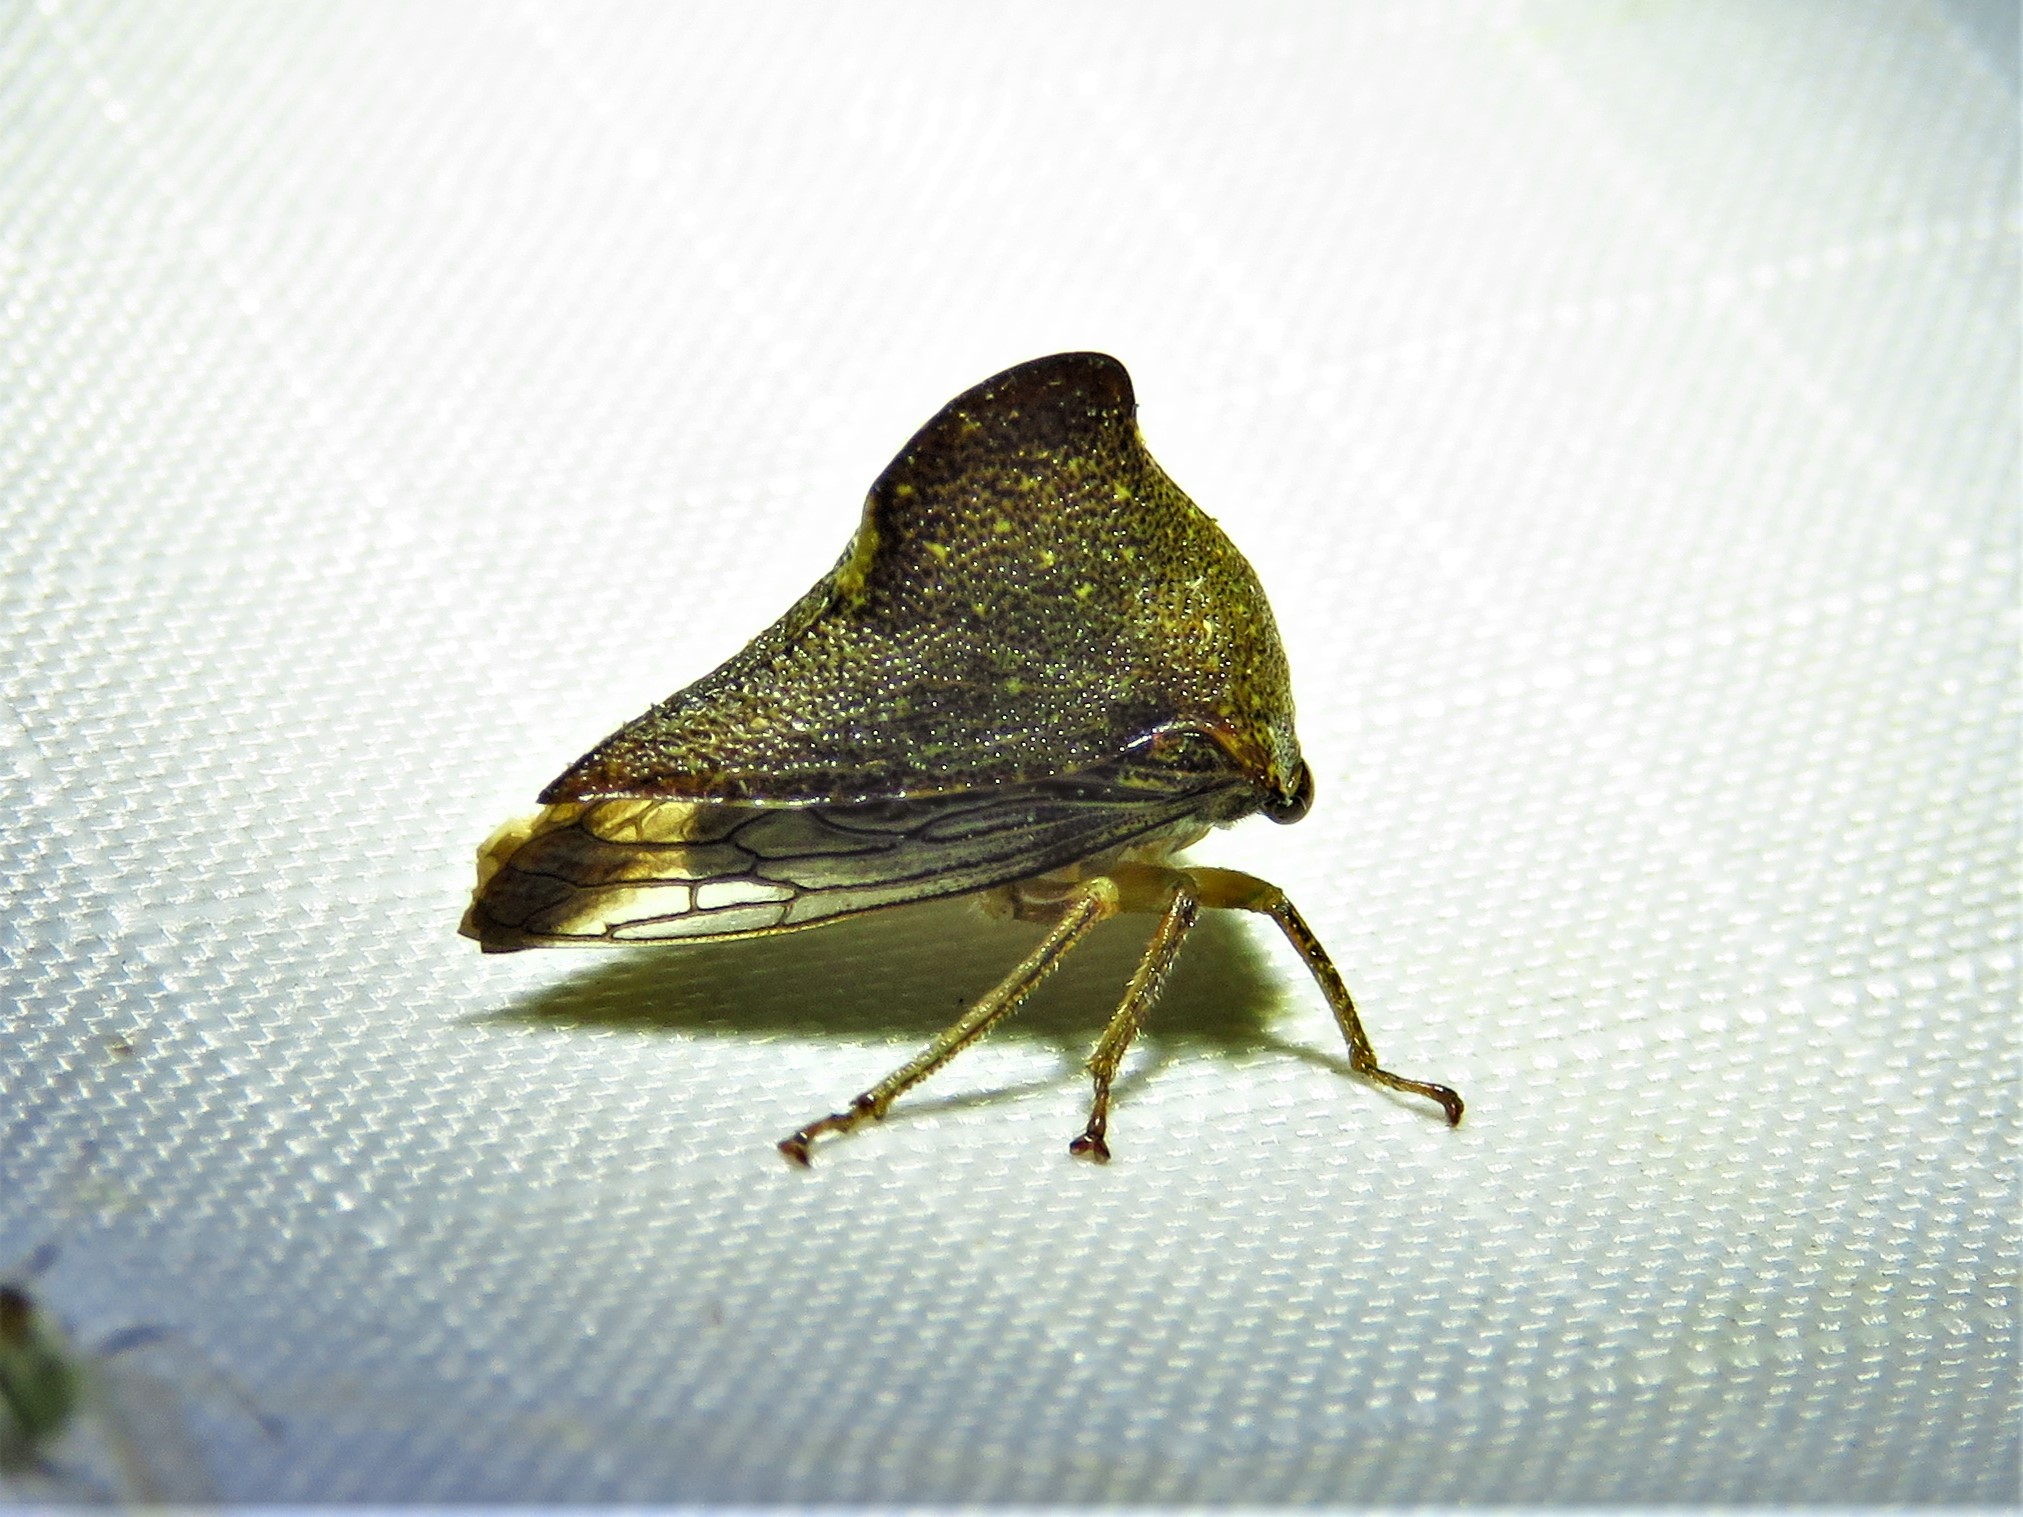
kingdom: Animalia
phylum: Arthropoda
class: Insecta
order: Hemiptera
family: Membracidae
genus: Telamona
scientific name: Telamona monticola
